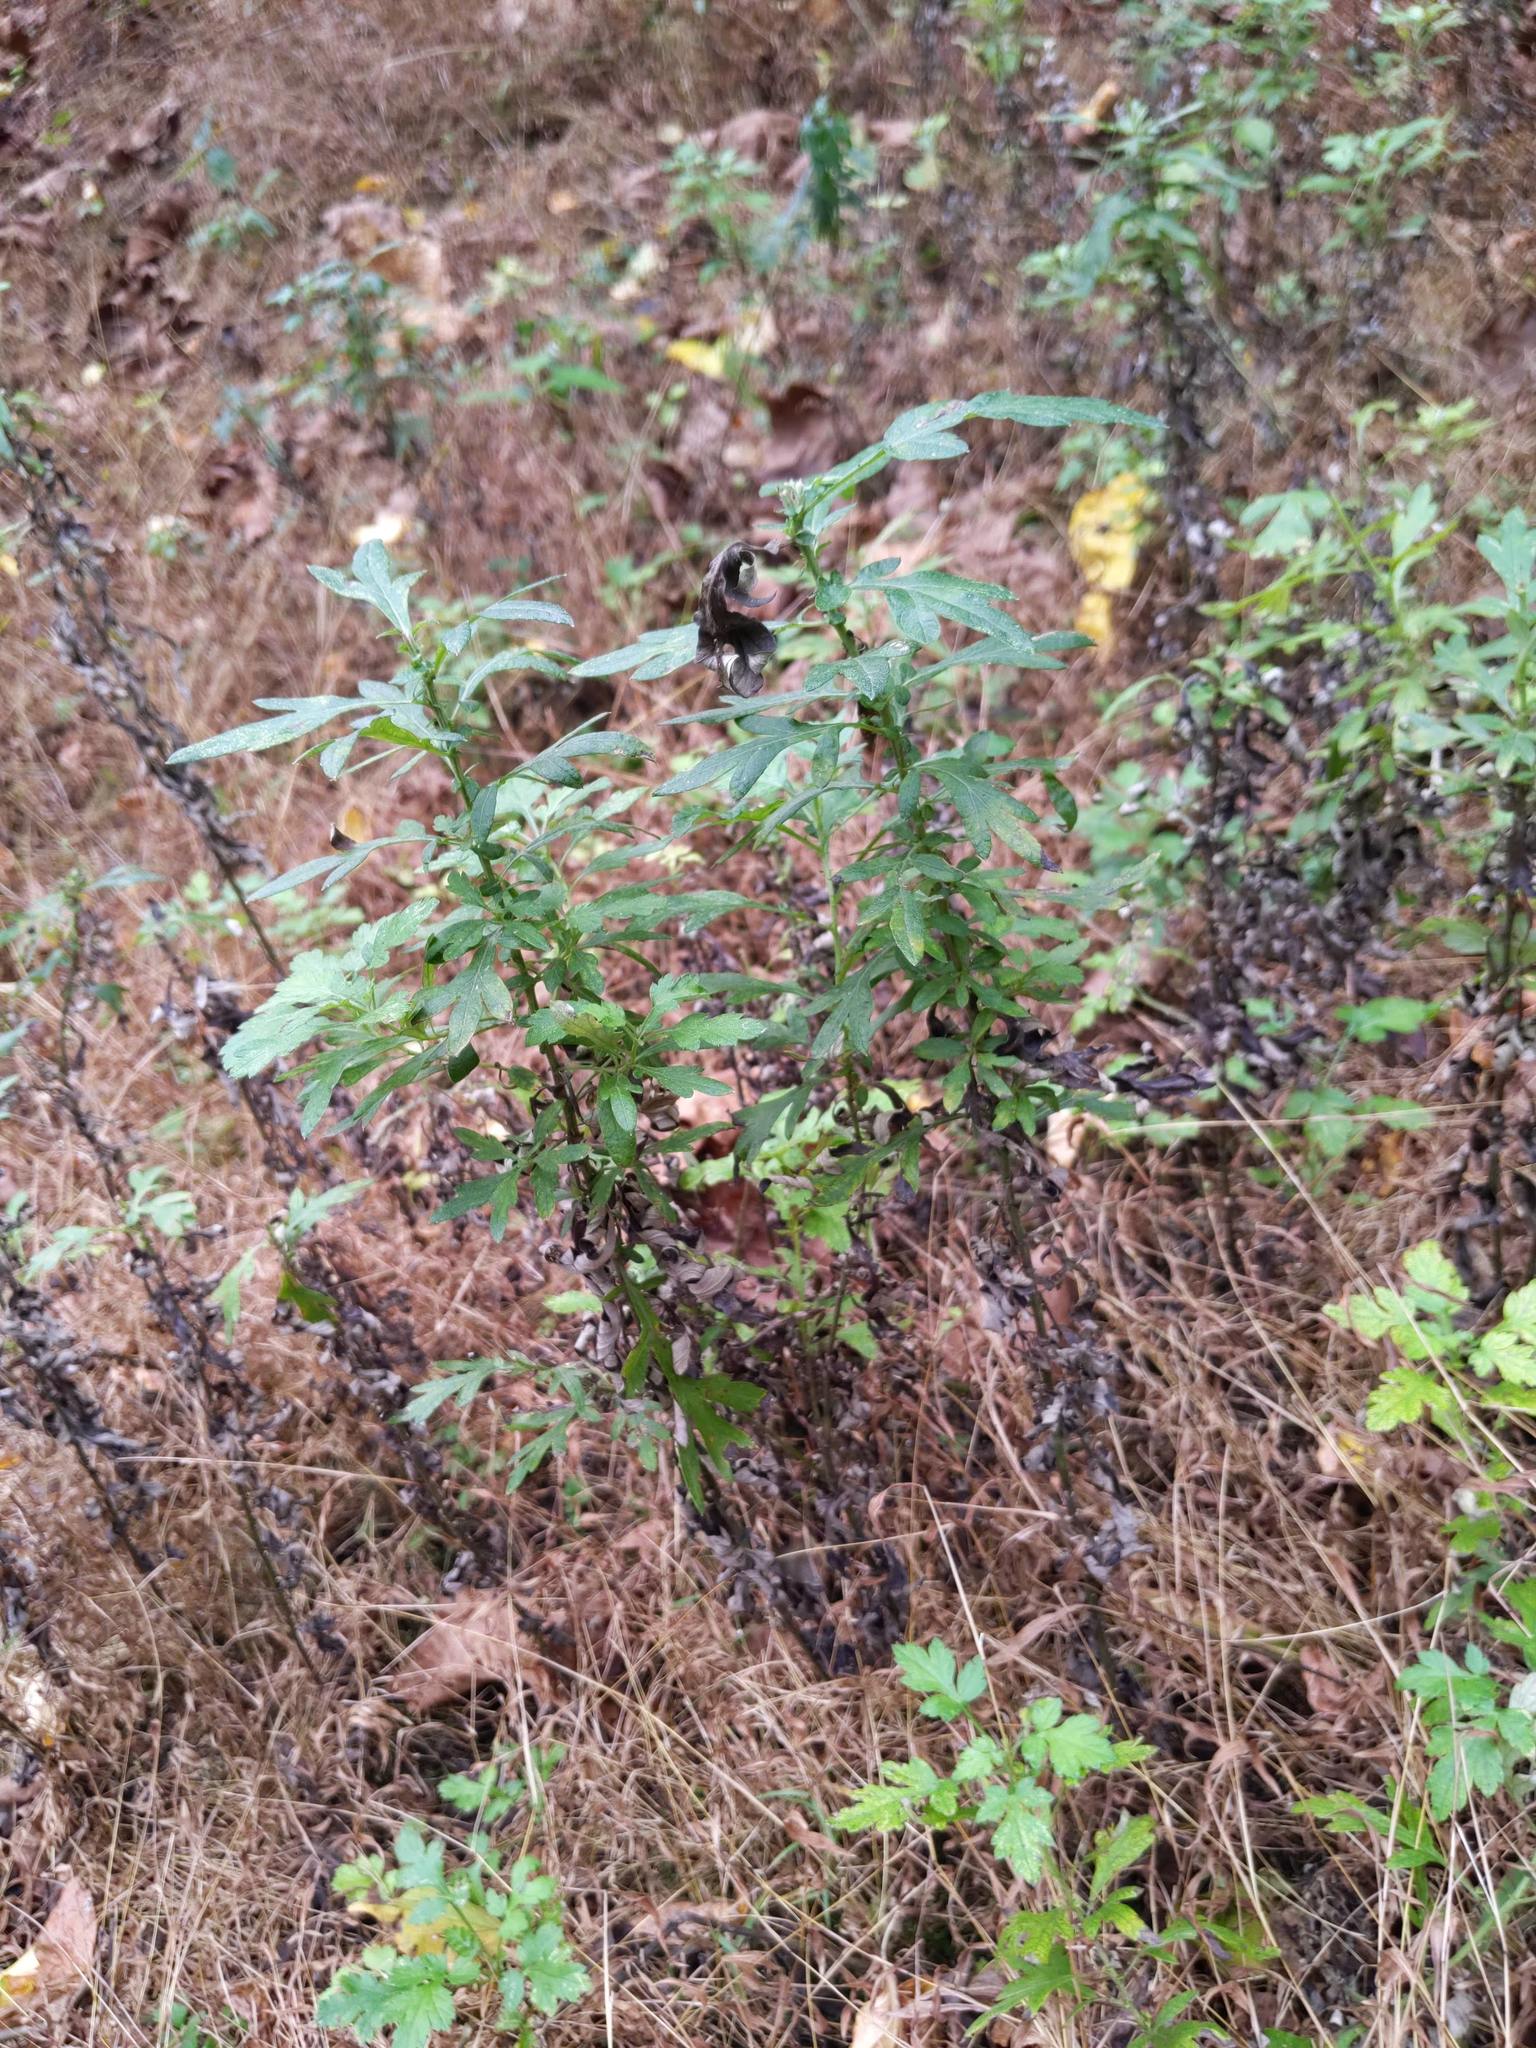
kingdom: Plantae
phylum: Tracheophyta
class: Magnoliopsida
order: Asterales
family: Asteraceae
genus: Artemisia
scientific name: Artemisia vulgaris
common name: Mugwort
